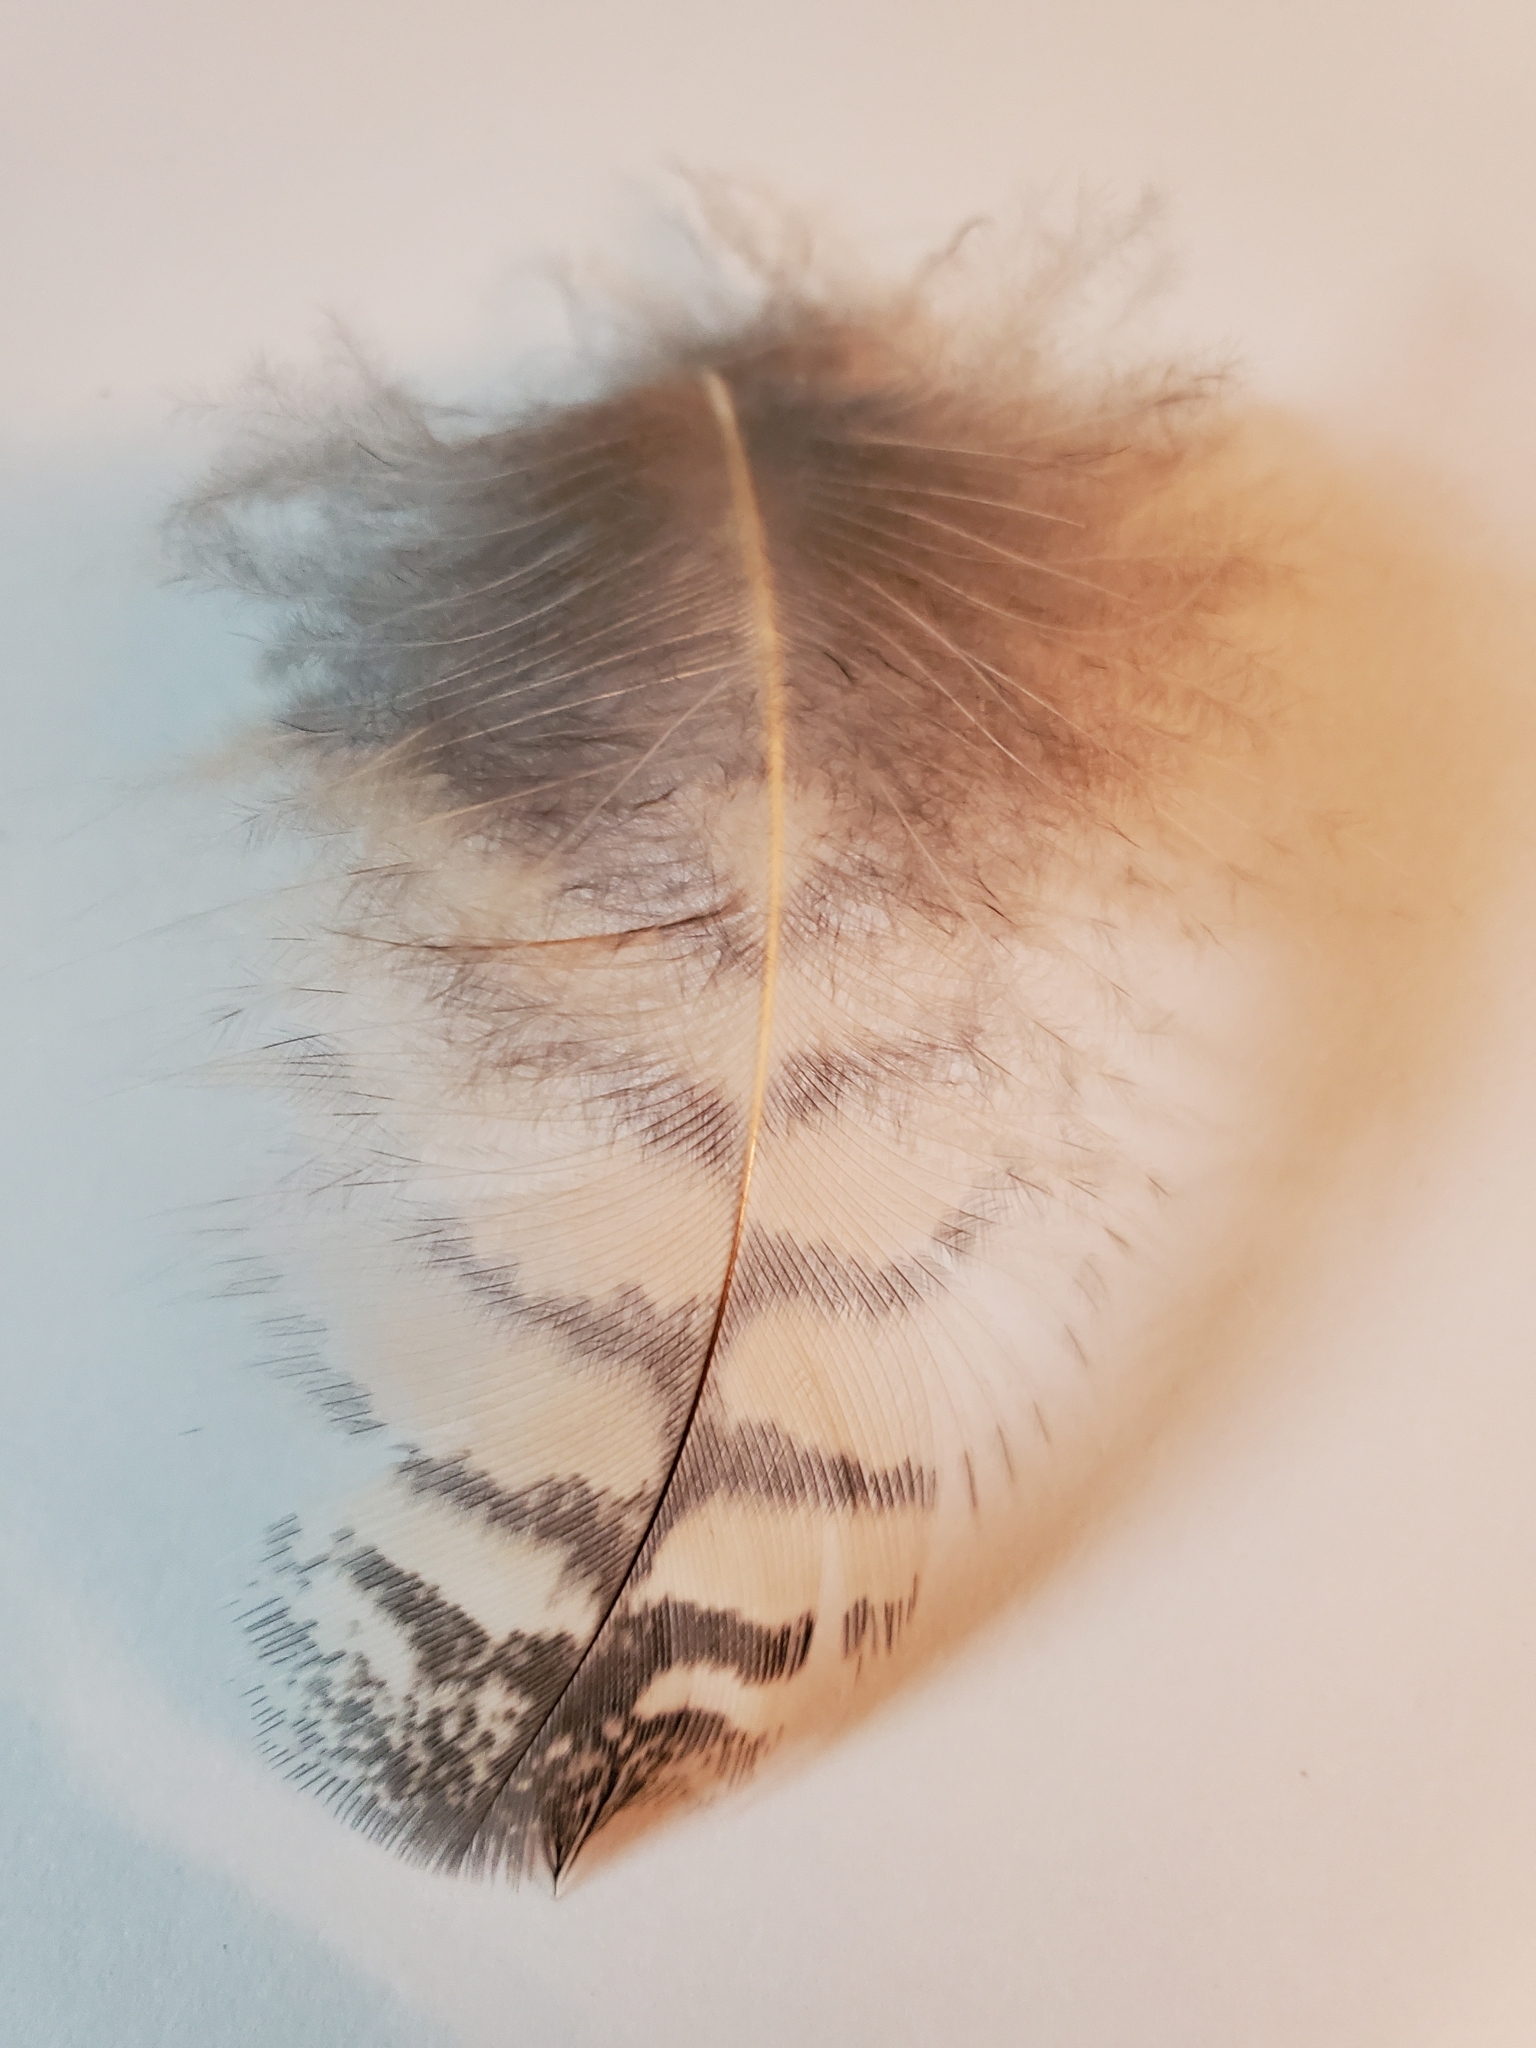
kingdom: Animalia
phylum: Chordata
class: Aves
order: Strigiformes
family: Strigidae
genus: Bubo
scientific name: Bubo virginianus
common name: Great horned owl
